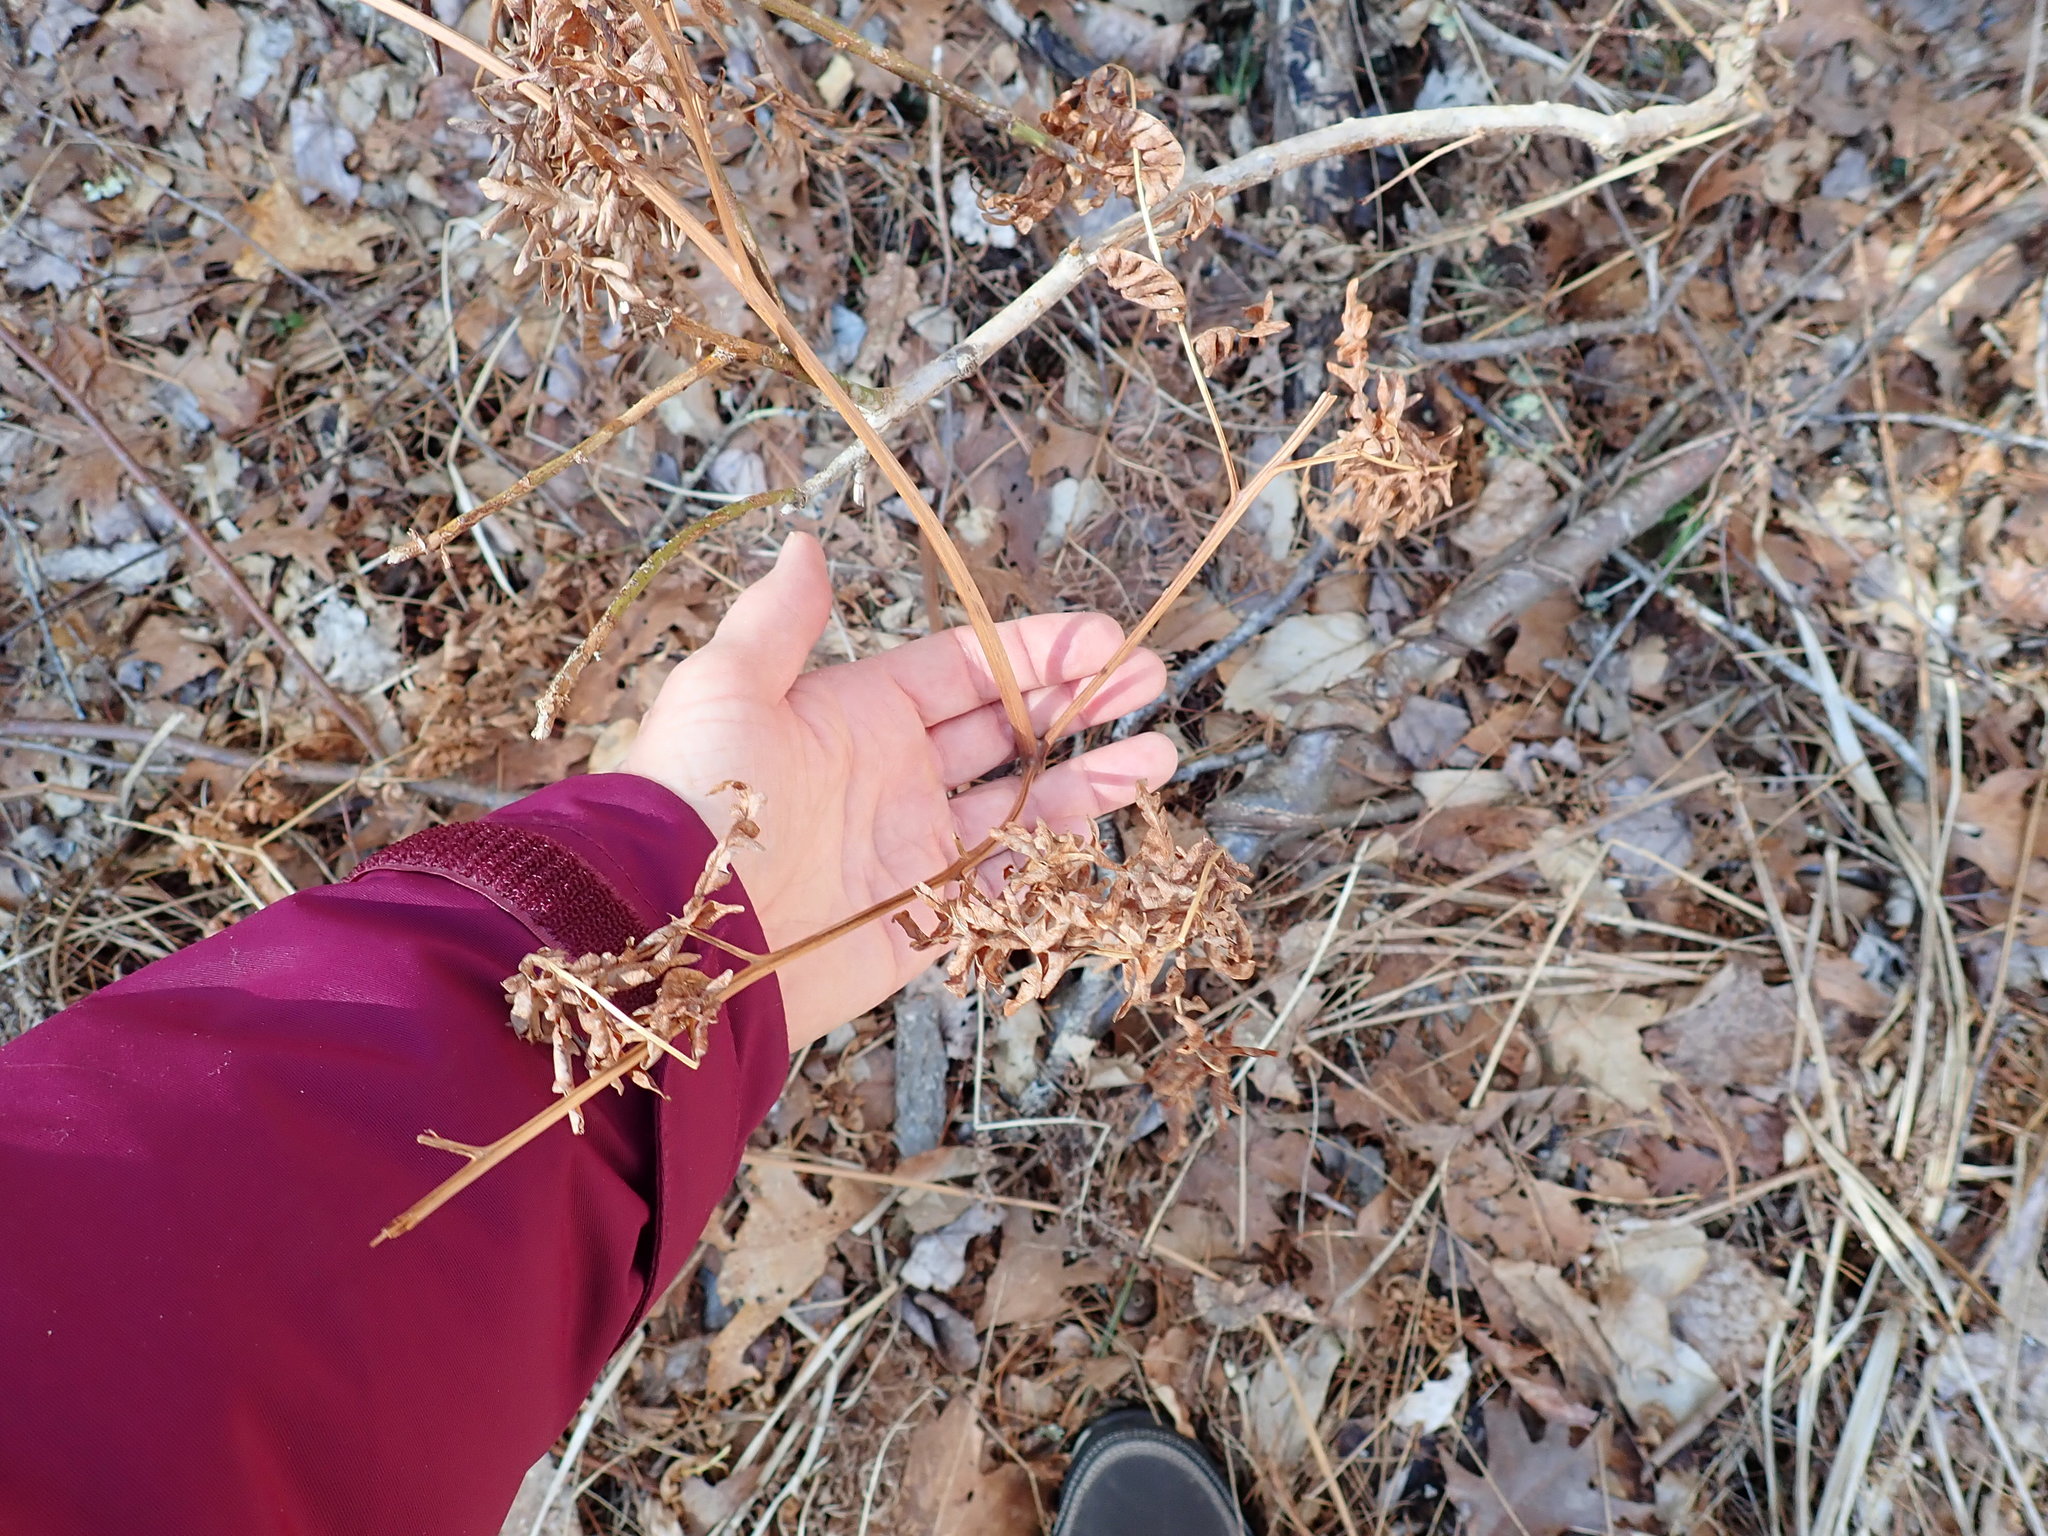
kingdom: Plantae
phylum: Tracheophyta
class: Polypodiopsida
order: Polypodiales
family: Dennstaedtiaceae
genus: Pteridium
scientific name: Pteridium aquilinum
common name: Bracken
